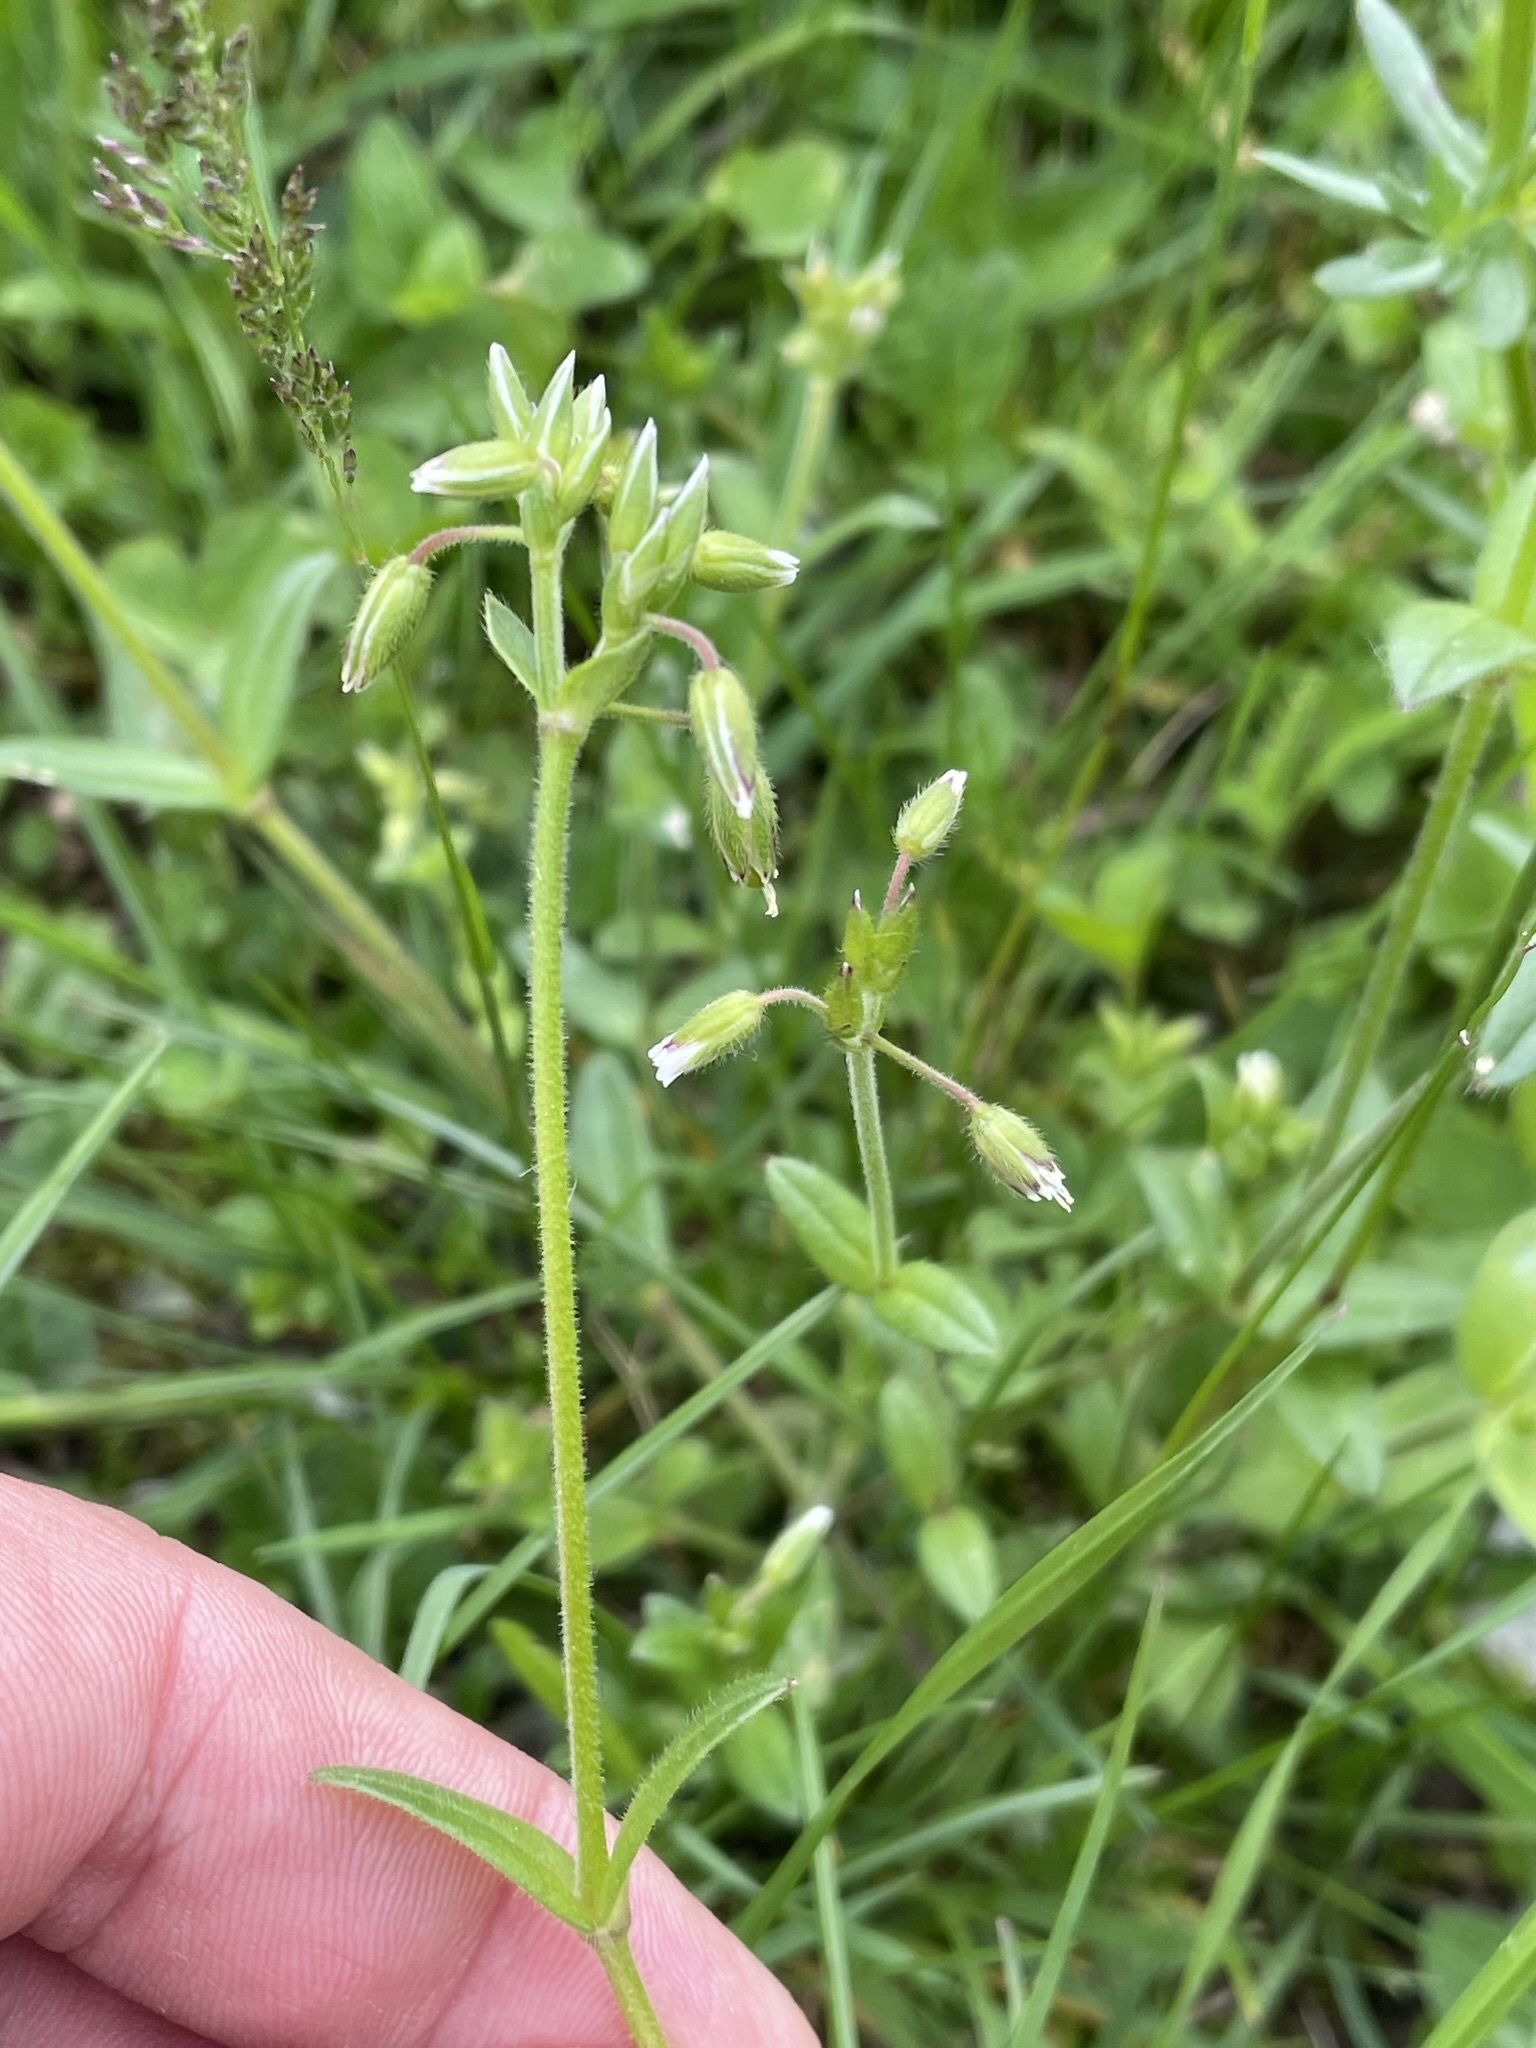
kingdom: Plantae
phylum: Tracheophyta
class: Magnoliopsida
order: Caryophyllales
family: Caryophyllaceae
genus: Cerastium
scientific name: Cerastium holosteoides
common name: Big chickweed
